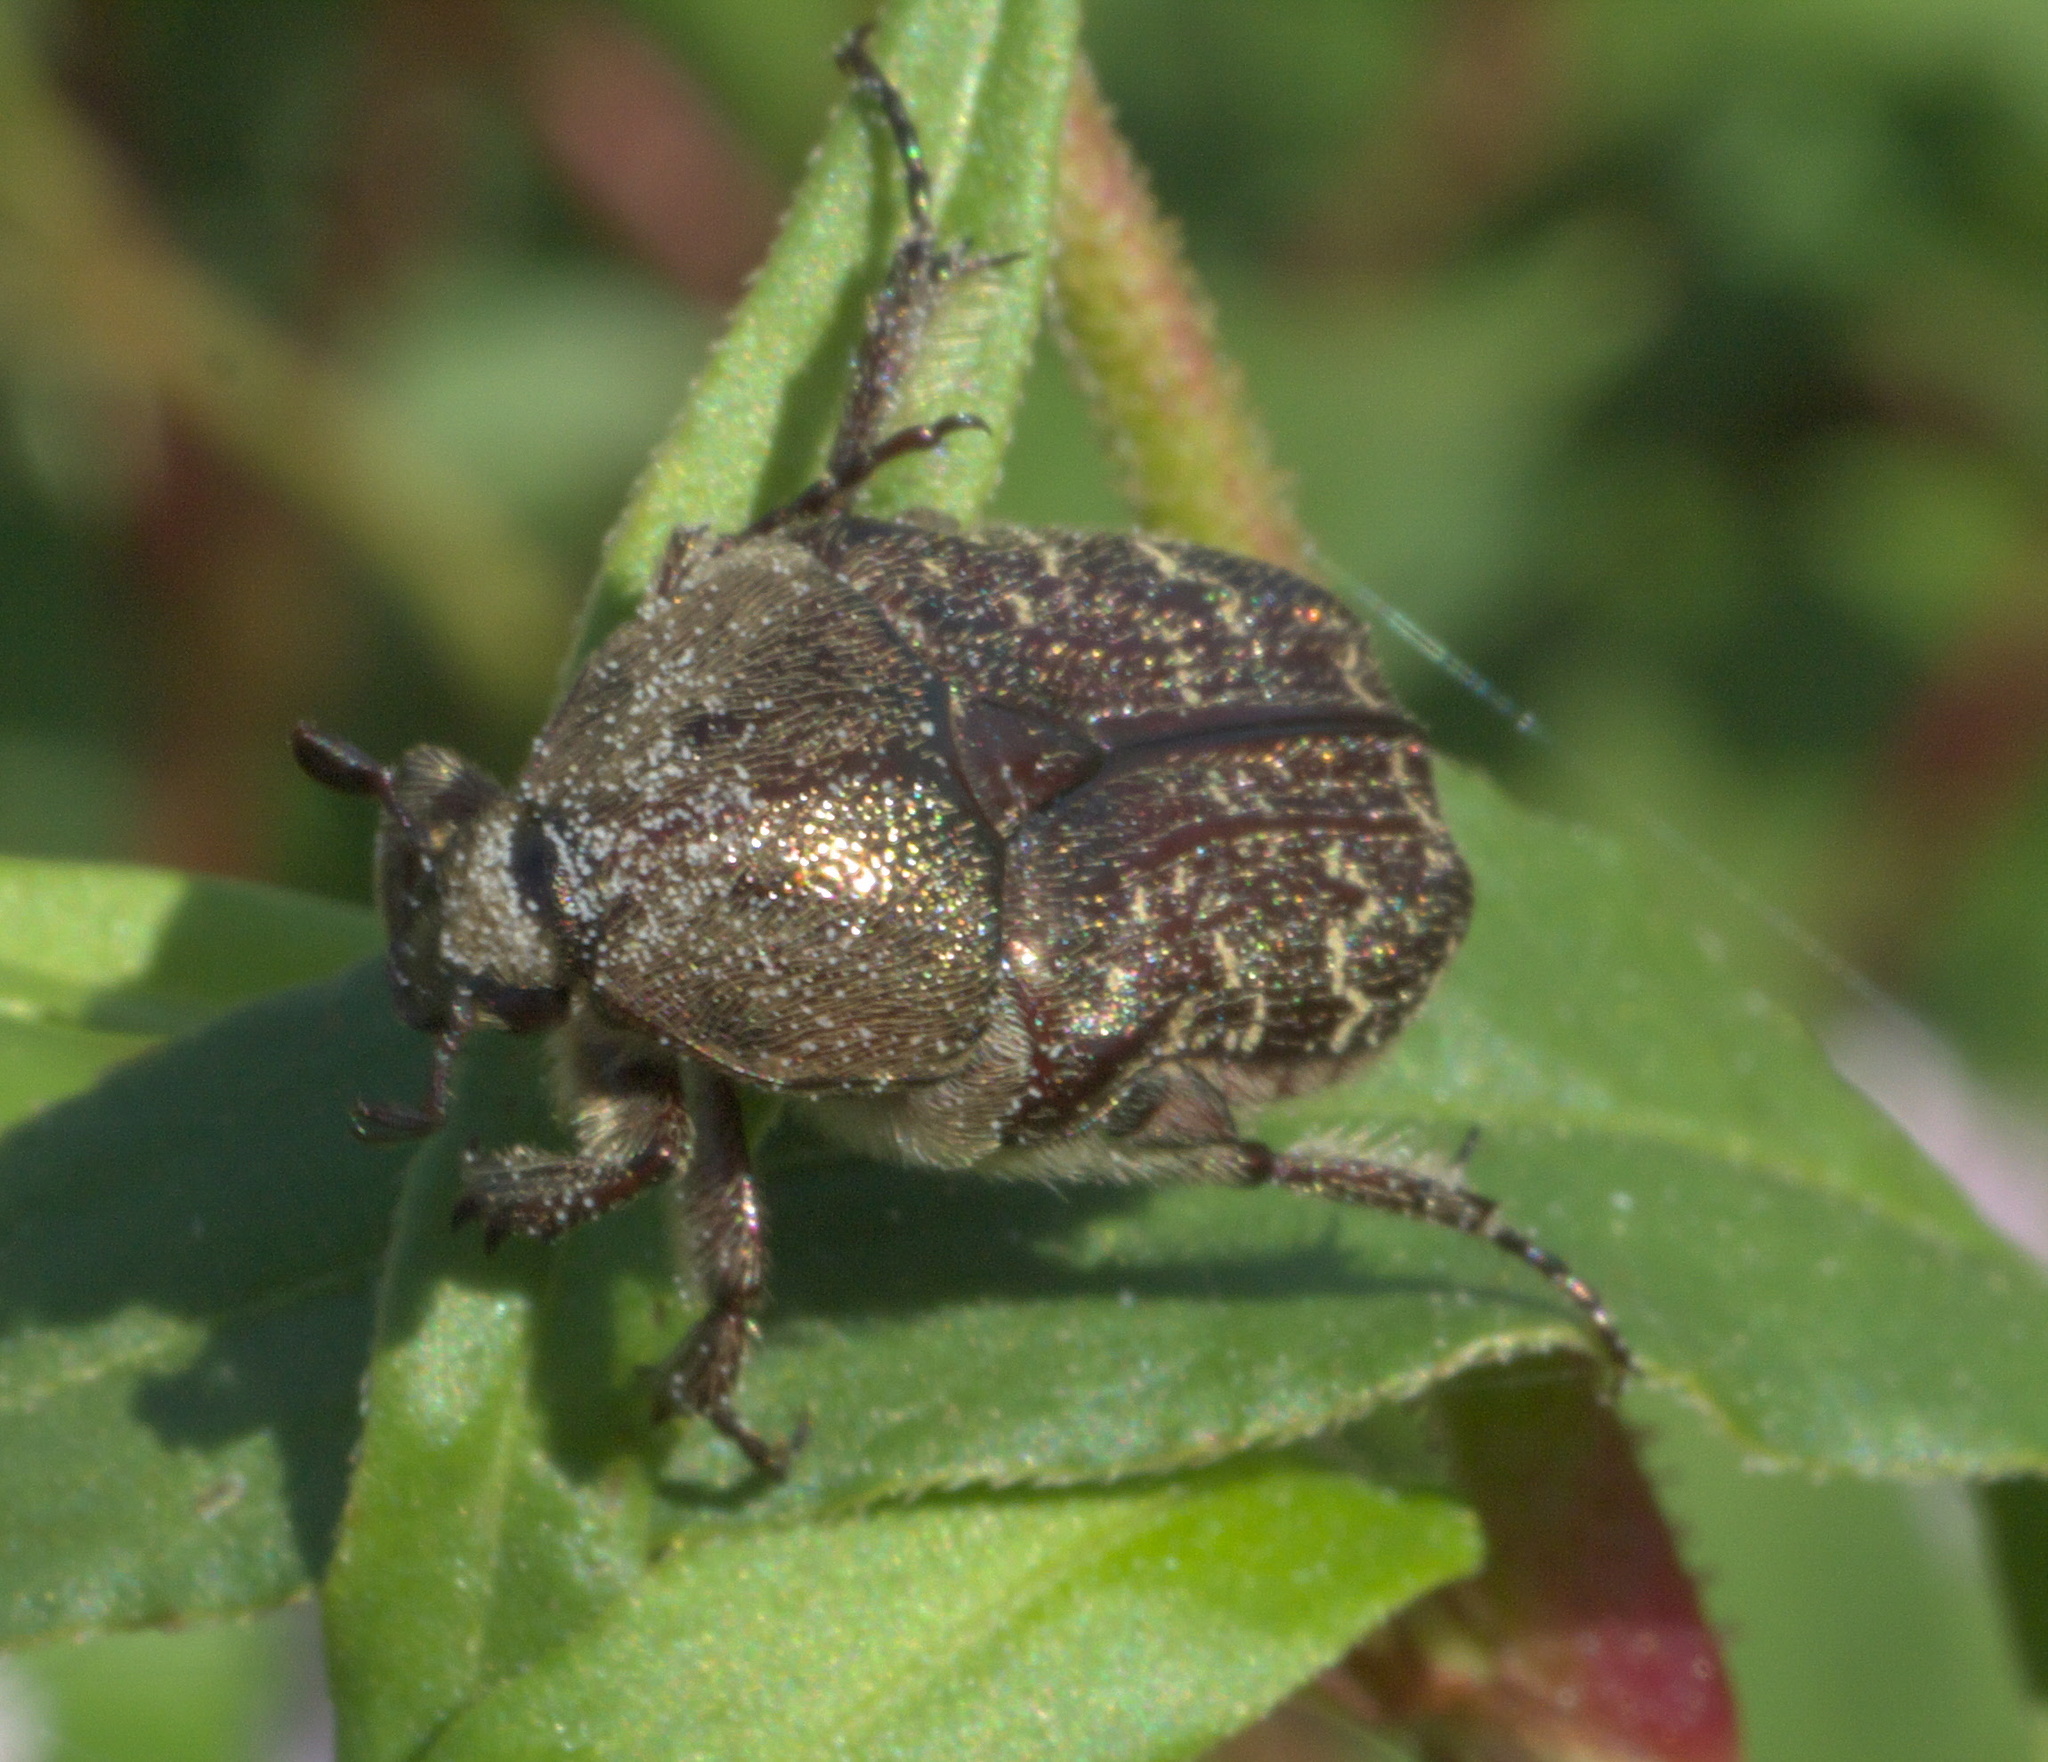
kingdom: Animalia
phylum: Arthropoda
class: Insecta
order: Coleoptera
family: Scarabaeidae
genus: Euphoria
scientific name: Euphoria sepulcralis
